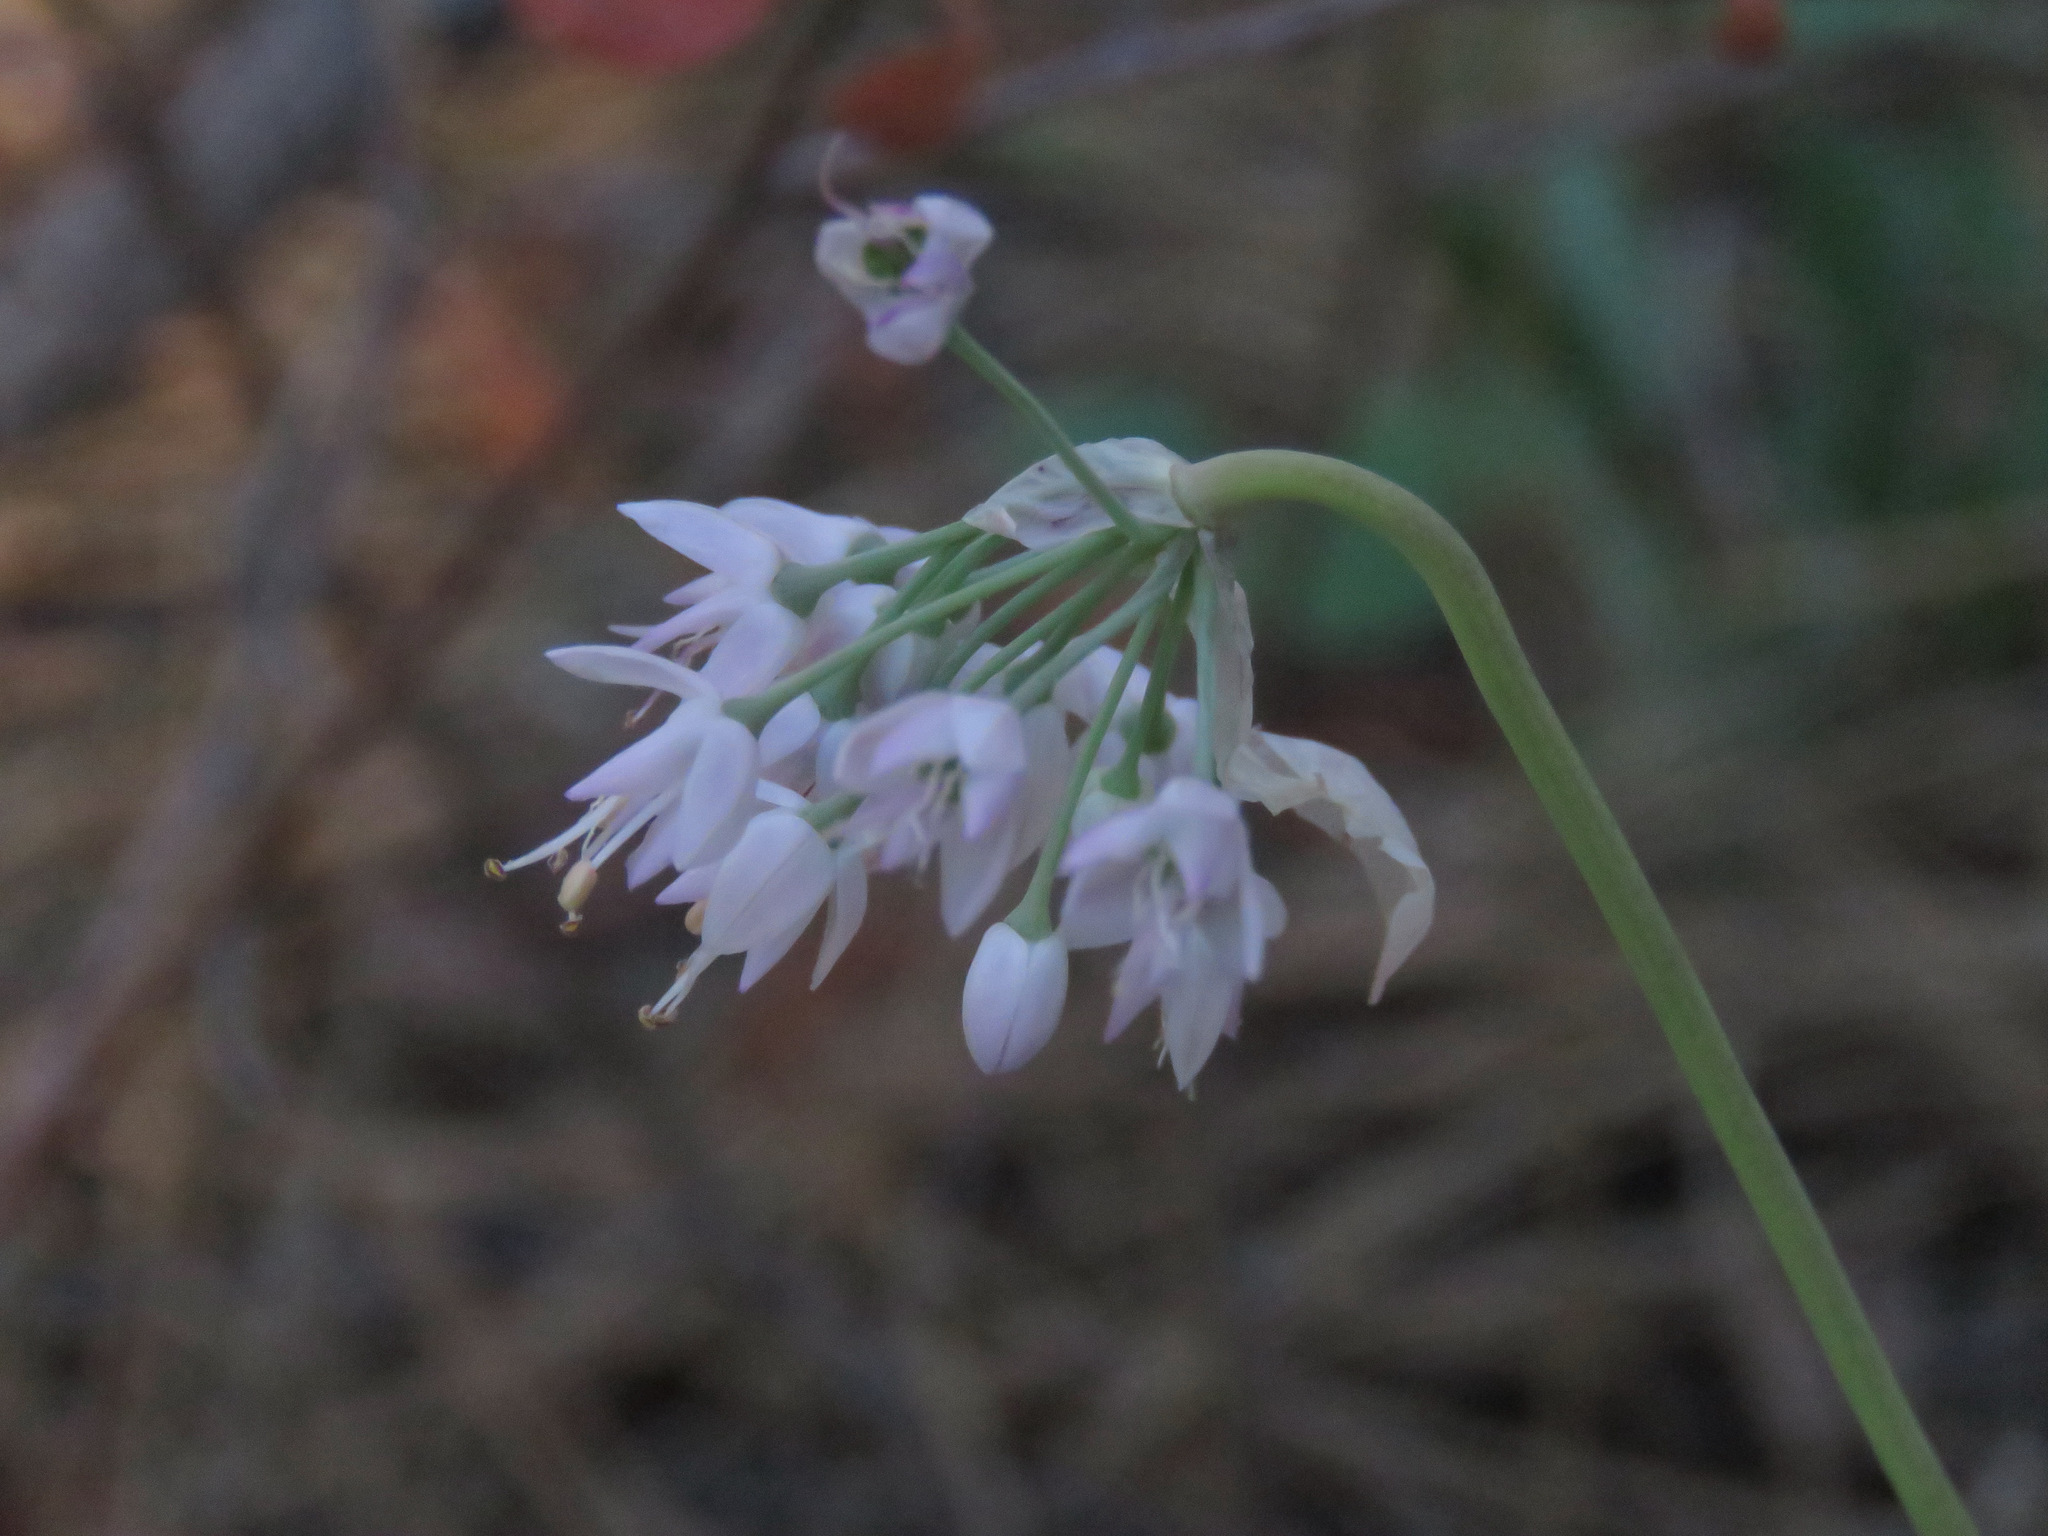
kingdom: Plantae
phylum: Tracheophyta
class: Liliopsida
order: Asparagales
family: Amaryllidaceae
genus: Allium
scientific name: Allium cernuum
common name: Nodding onion
